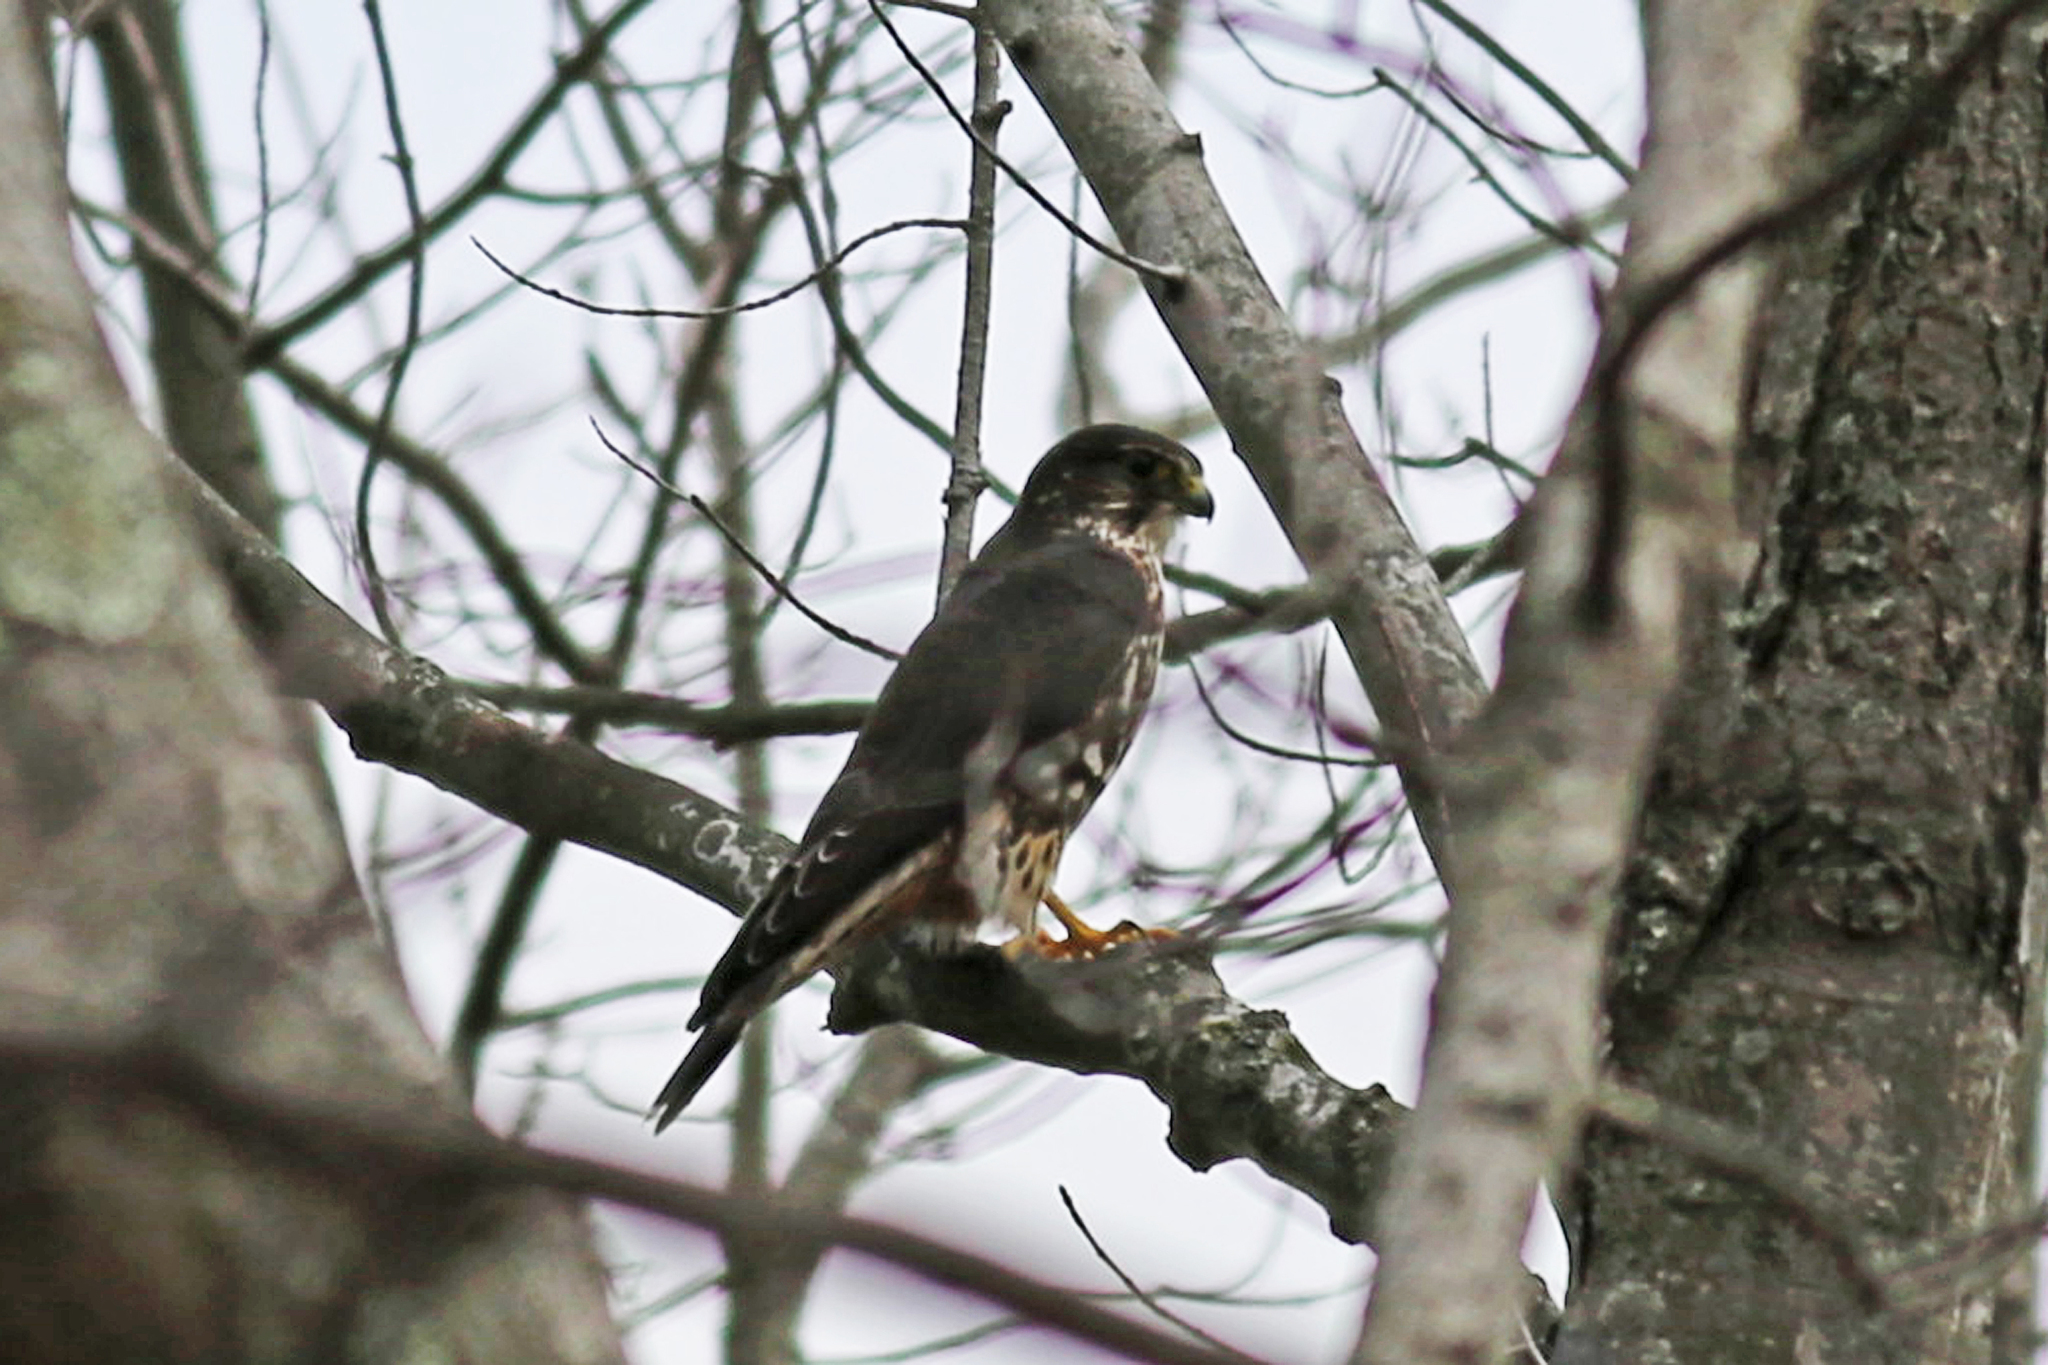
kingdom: Animalia
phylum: Chordata
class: Aves
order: Falconiformes
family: Falconidae
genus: Falco
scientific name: Falco columbarius
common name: Merlin
